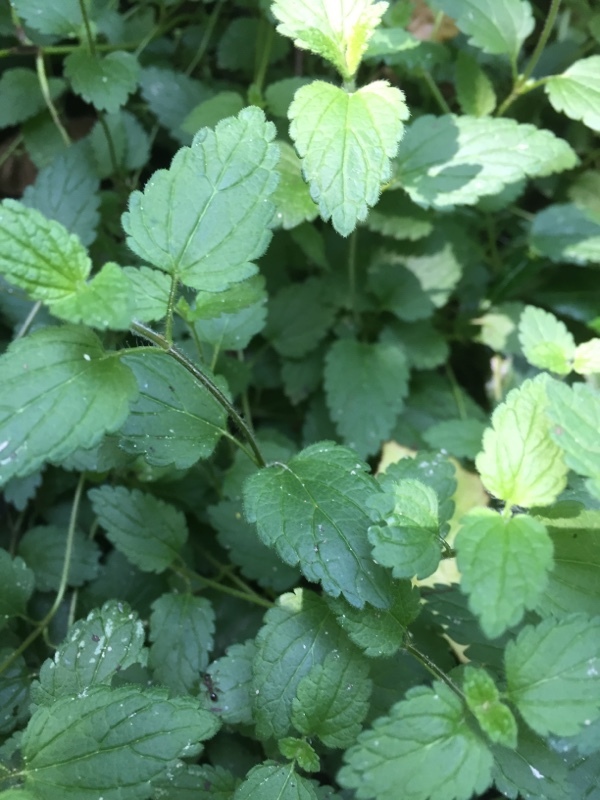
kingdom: Plantae
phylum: Tracheophyta
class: Magnoliopsida
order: Lamiales
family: Plantaginaceae
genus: Veronica
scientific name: Veronica chamaedrys
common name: Germander speedwell
